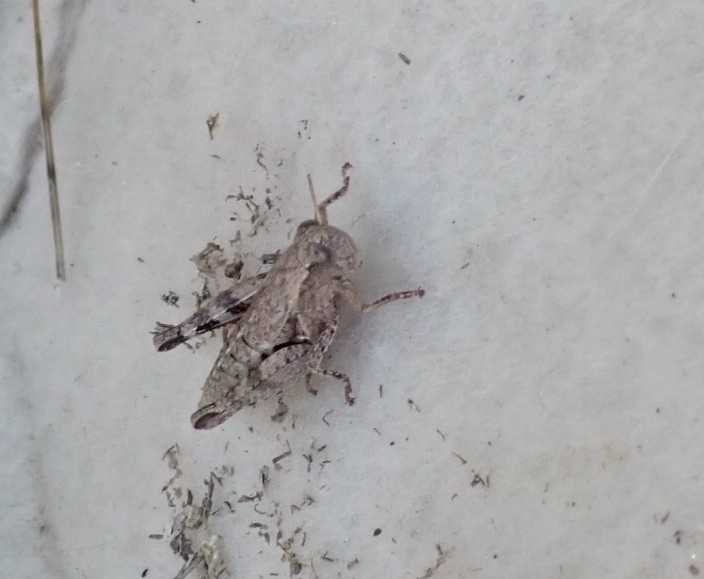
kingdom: Animalia
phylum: Arthropoda
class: Insecta
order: Orthoptera
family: Acrididae
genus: Pezotettix
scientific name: Pezotettix giornae
